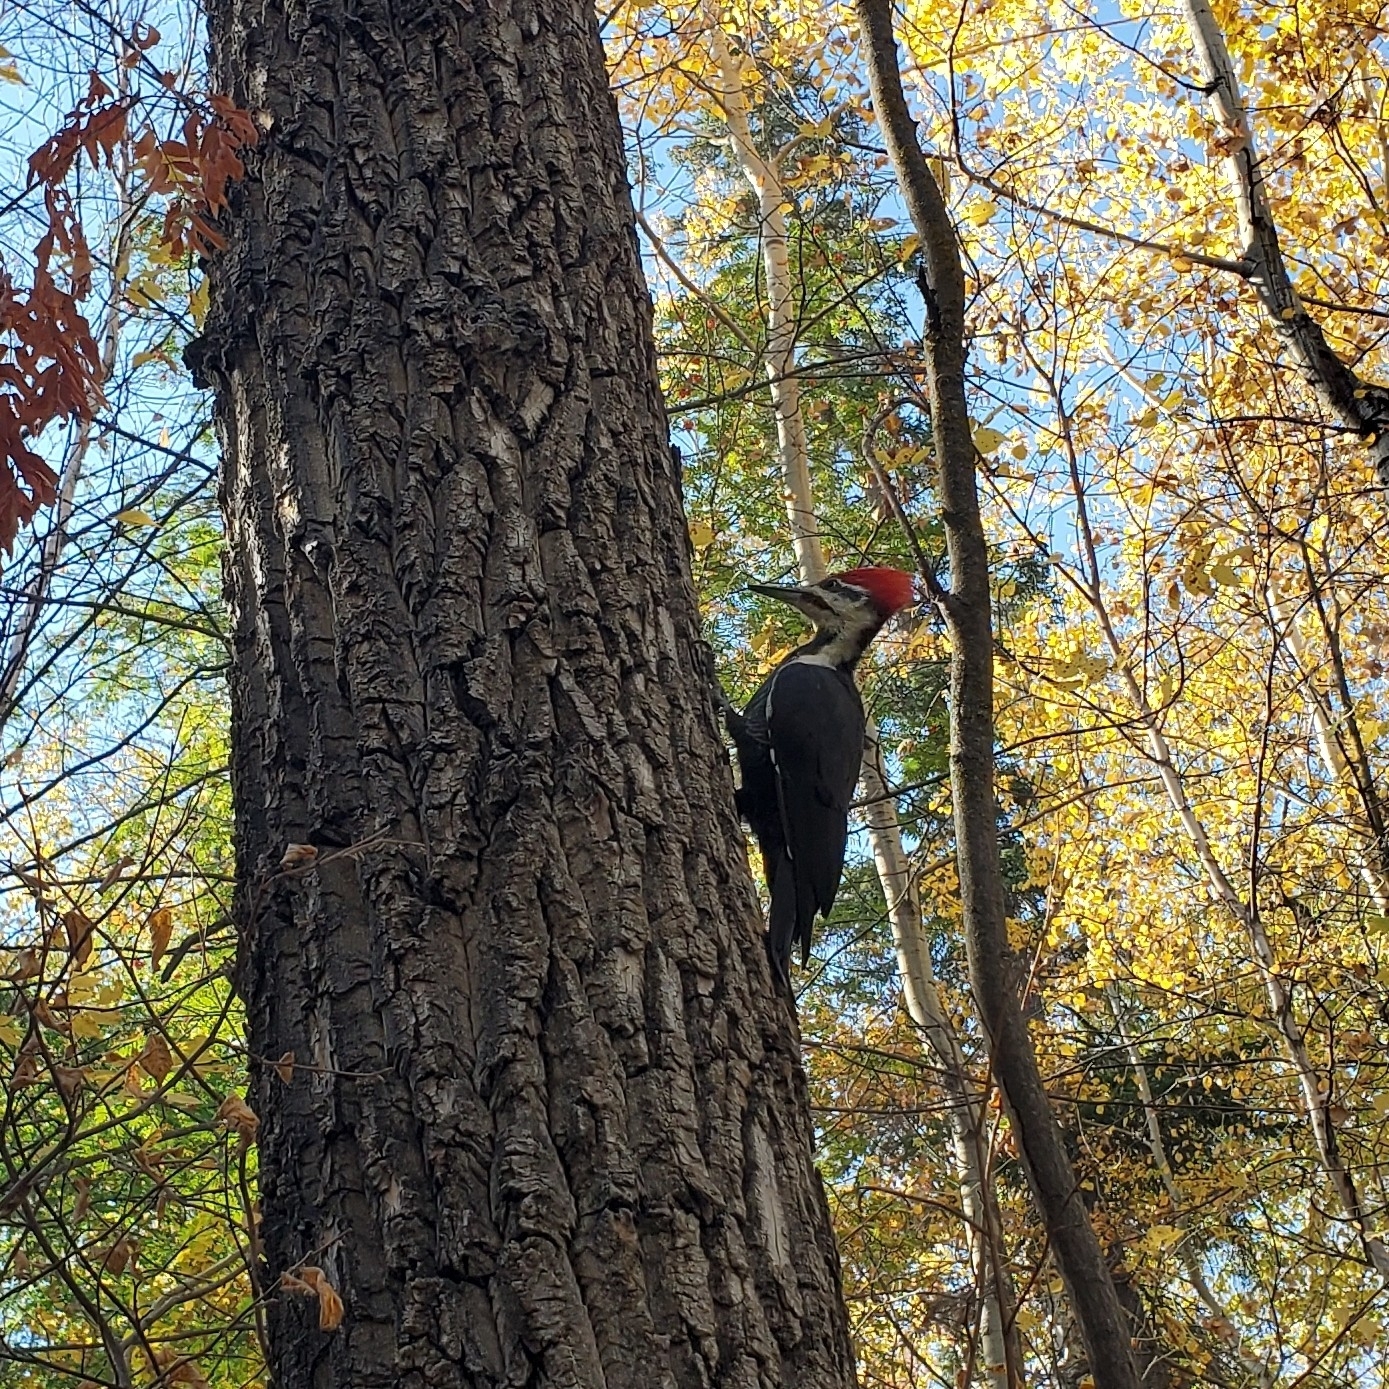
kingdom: Animalia
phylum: Chordata
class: Aves
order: Piciformes
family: Picidae
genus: Dryocopus
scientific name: Dryocopus pileatus
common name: Pileated woodpecker
